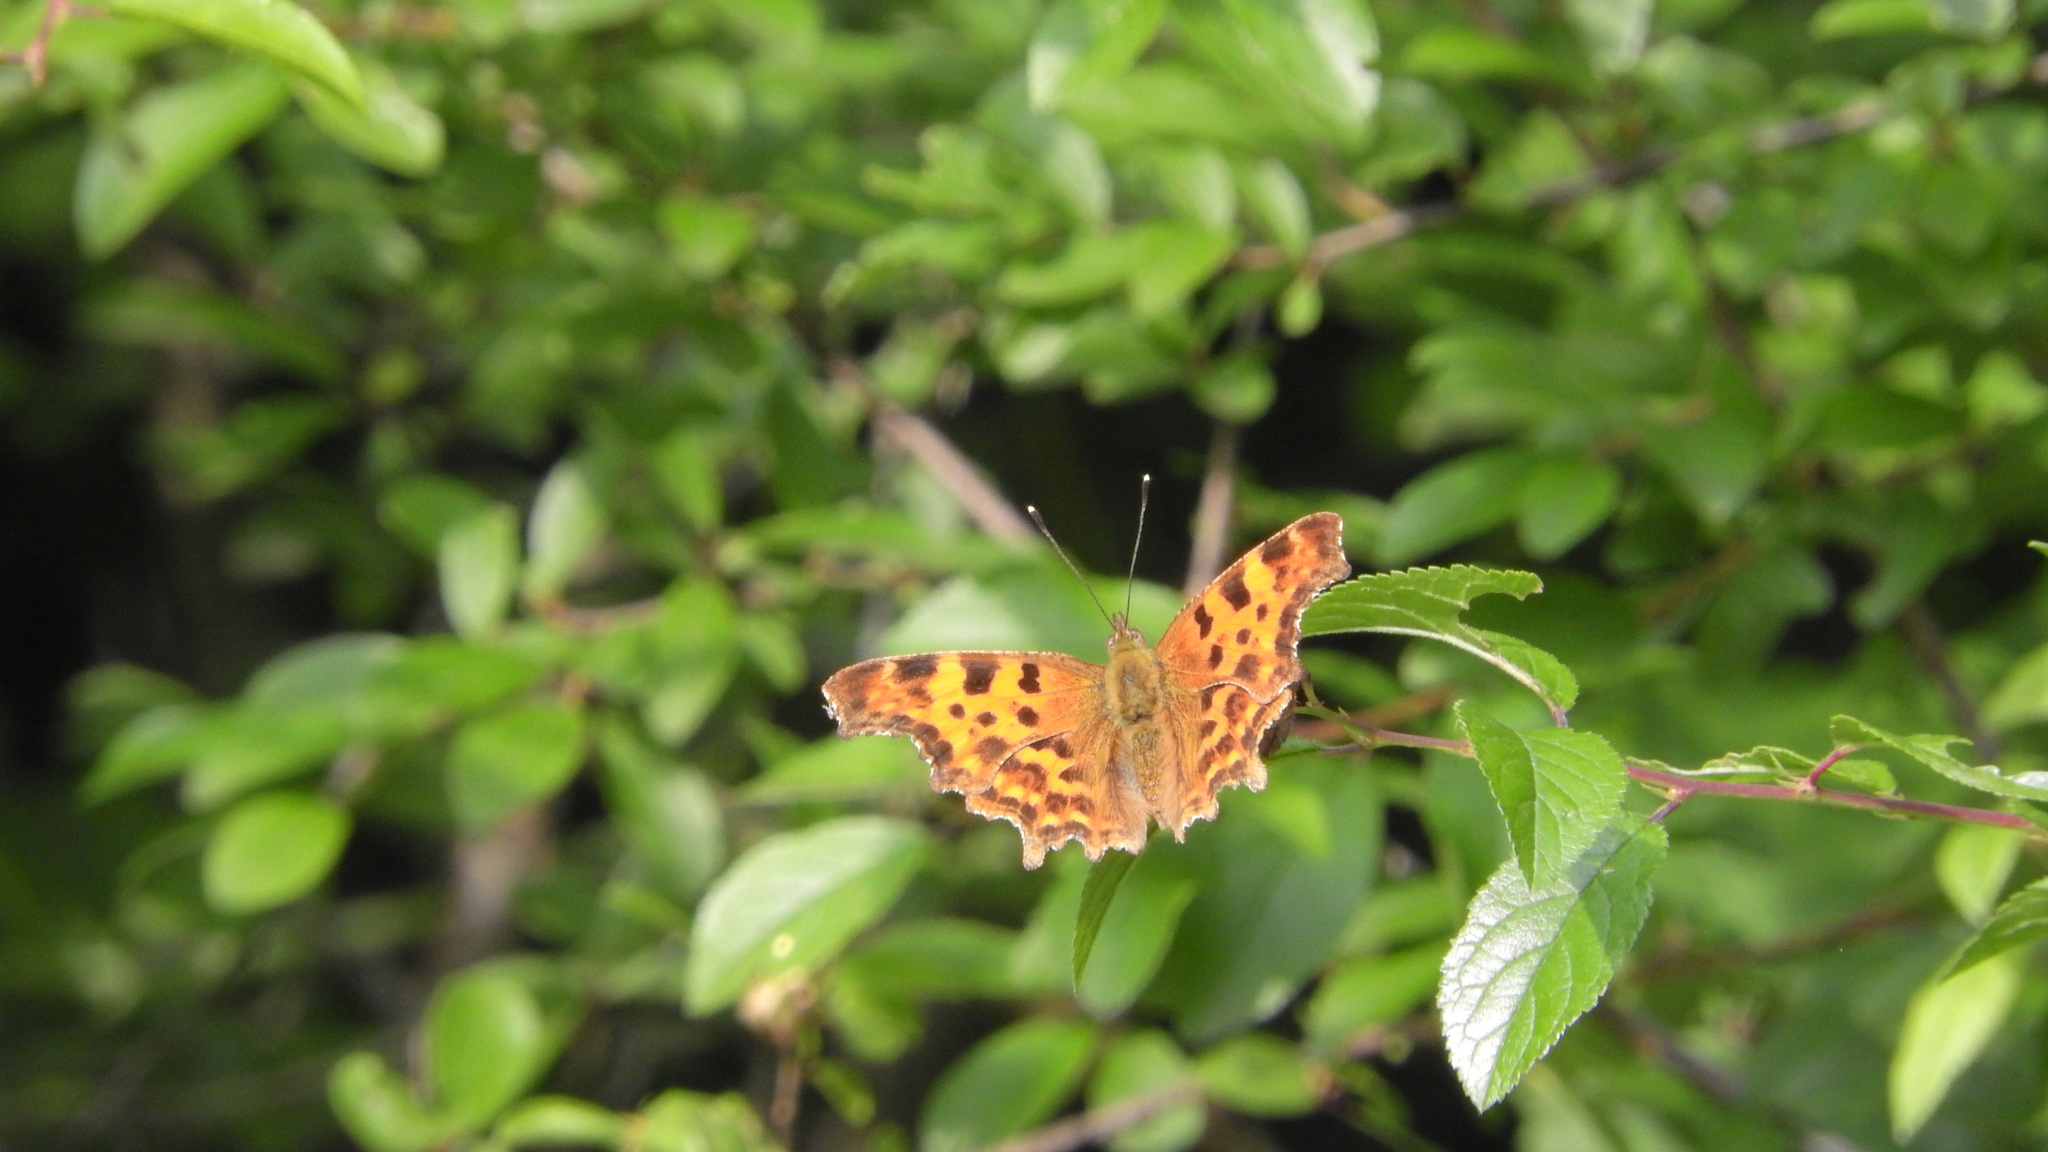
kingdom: Animalia
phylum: Arthropoda
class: Insecta
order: Lepidoptera
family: Nymphalidae
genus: Polygonia
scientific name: Polygonia c-album
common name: Comma
